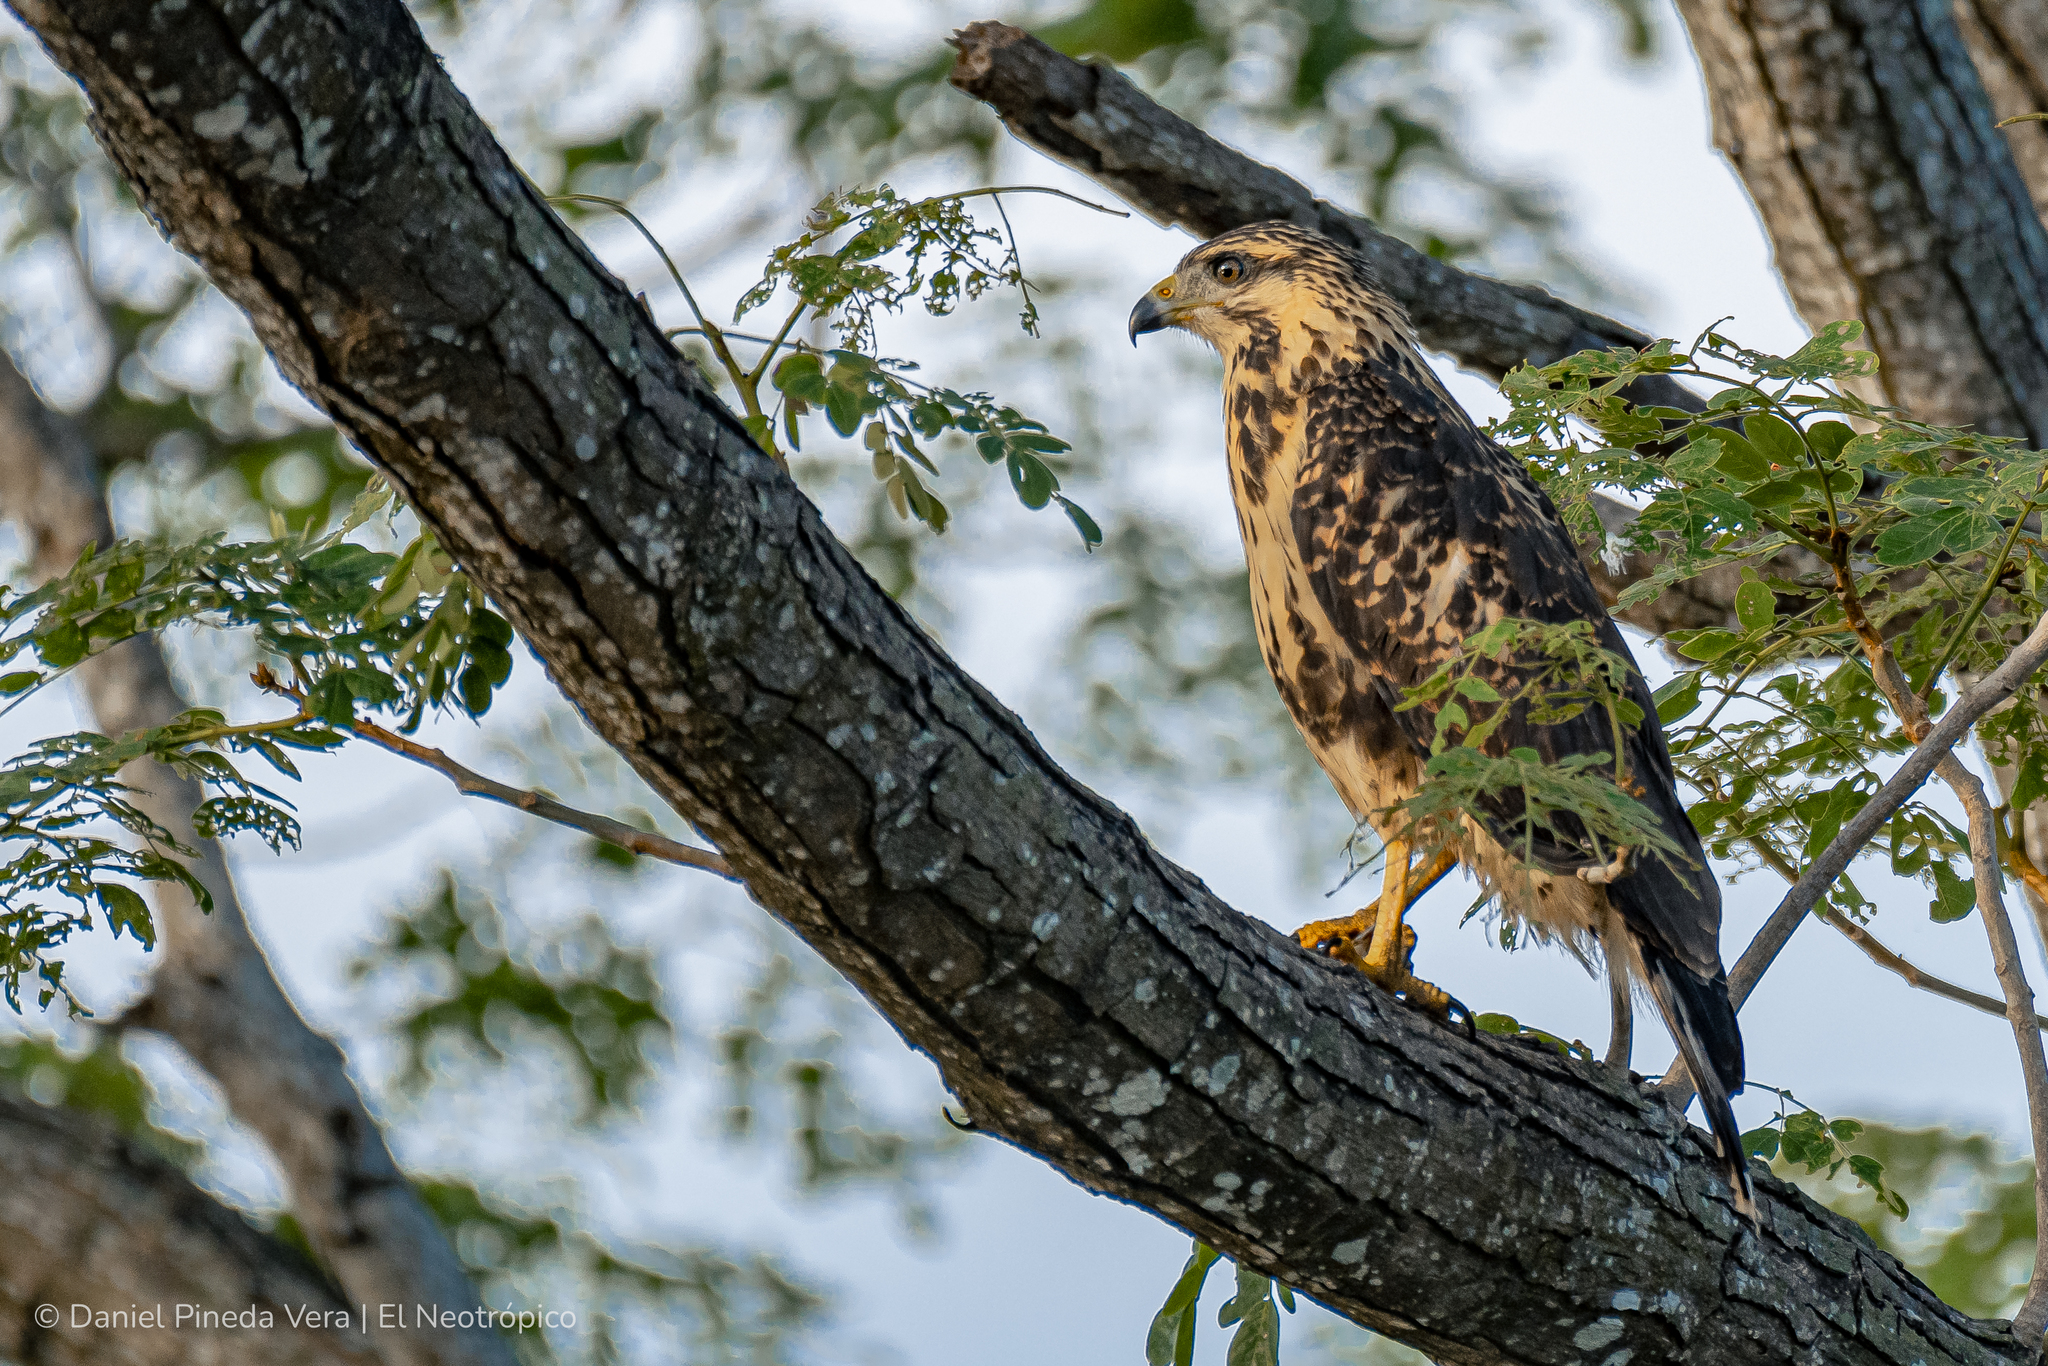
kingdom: Animalia
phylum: Chordata
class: Aves
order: Accipitriformes
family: Accipitridae
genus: Buteogallus
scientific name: Buteogallus anthracinus
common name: Common black hawk
